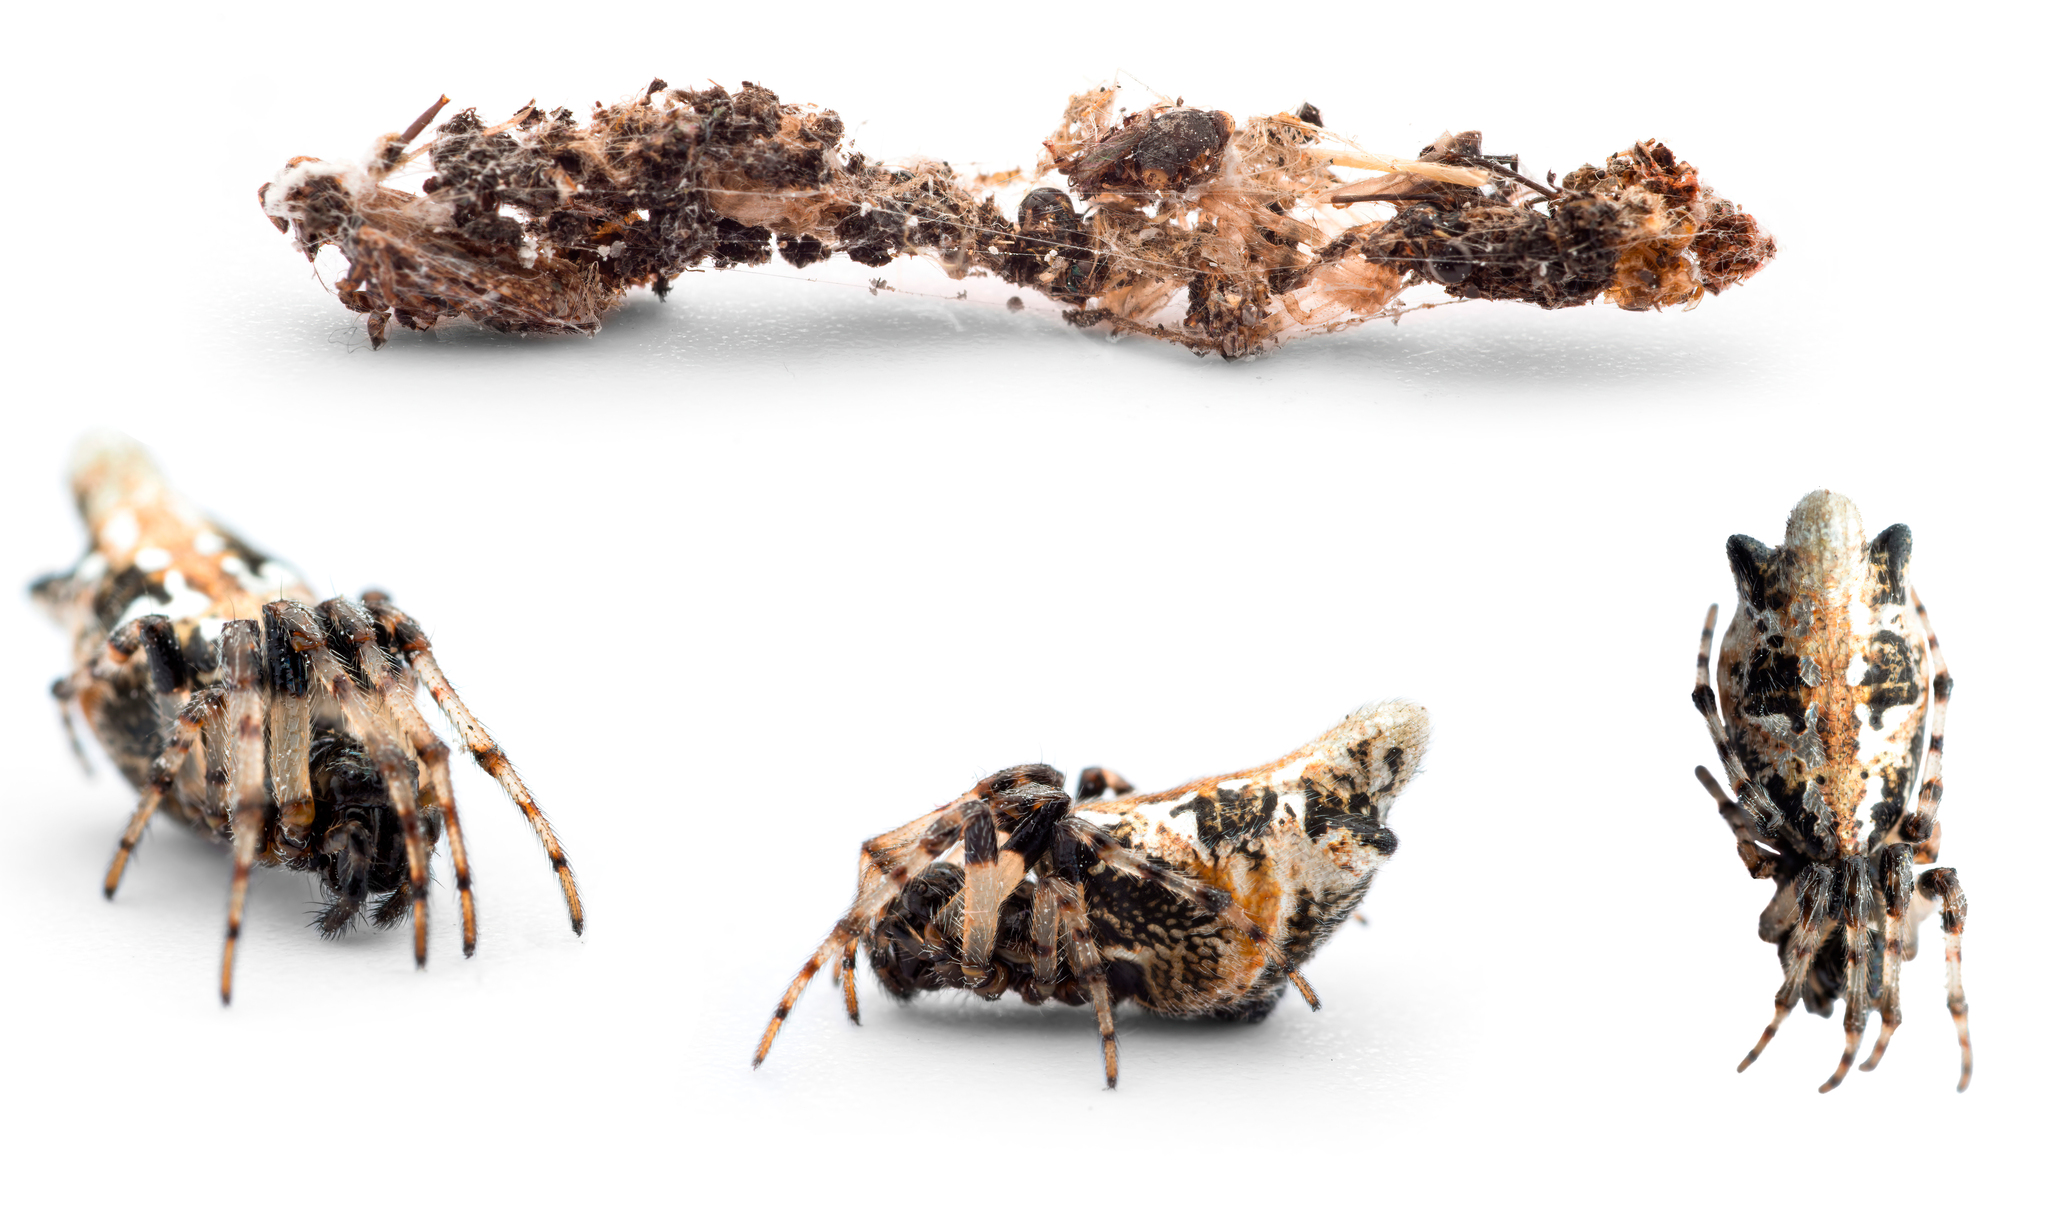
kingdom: Animalia
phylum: Arthropoda
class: Arachnida
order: Araneae
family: Araneidae
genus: Cyclosa
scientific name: Cyclosa insulana
